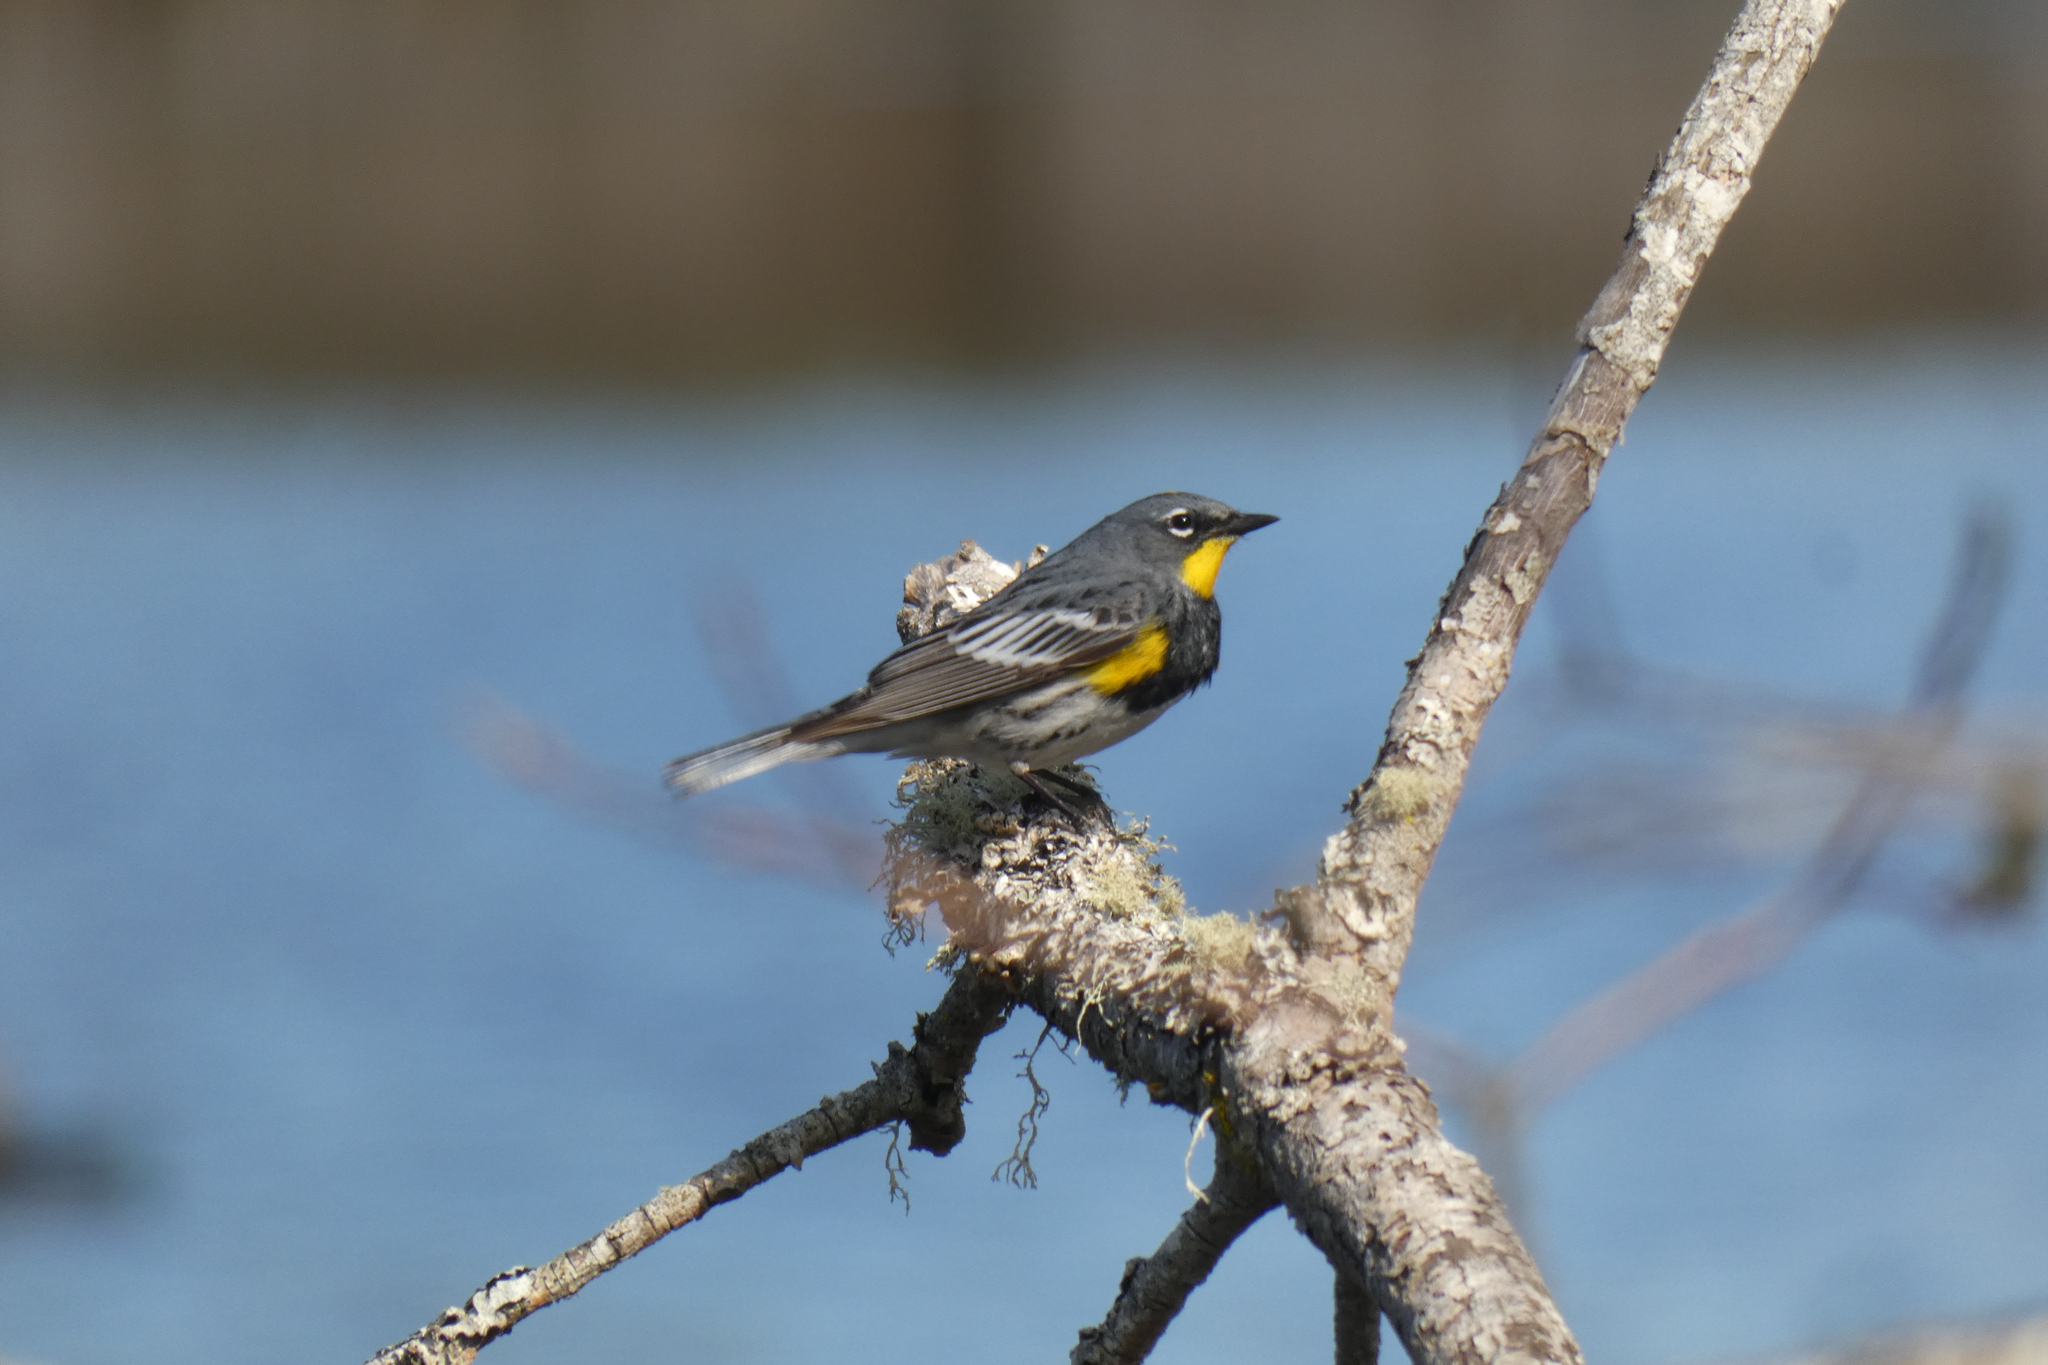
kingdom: Animalia
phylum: Chordata
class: Aves
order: Passeriformes
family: Parulidae
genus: Setophaga
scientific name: Setophaga coronata
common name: Myrtle warbler
